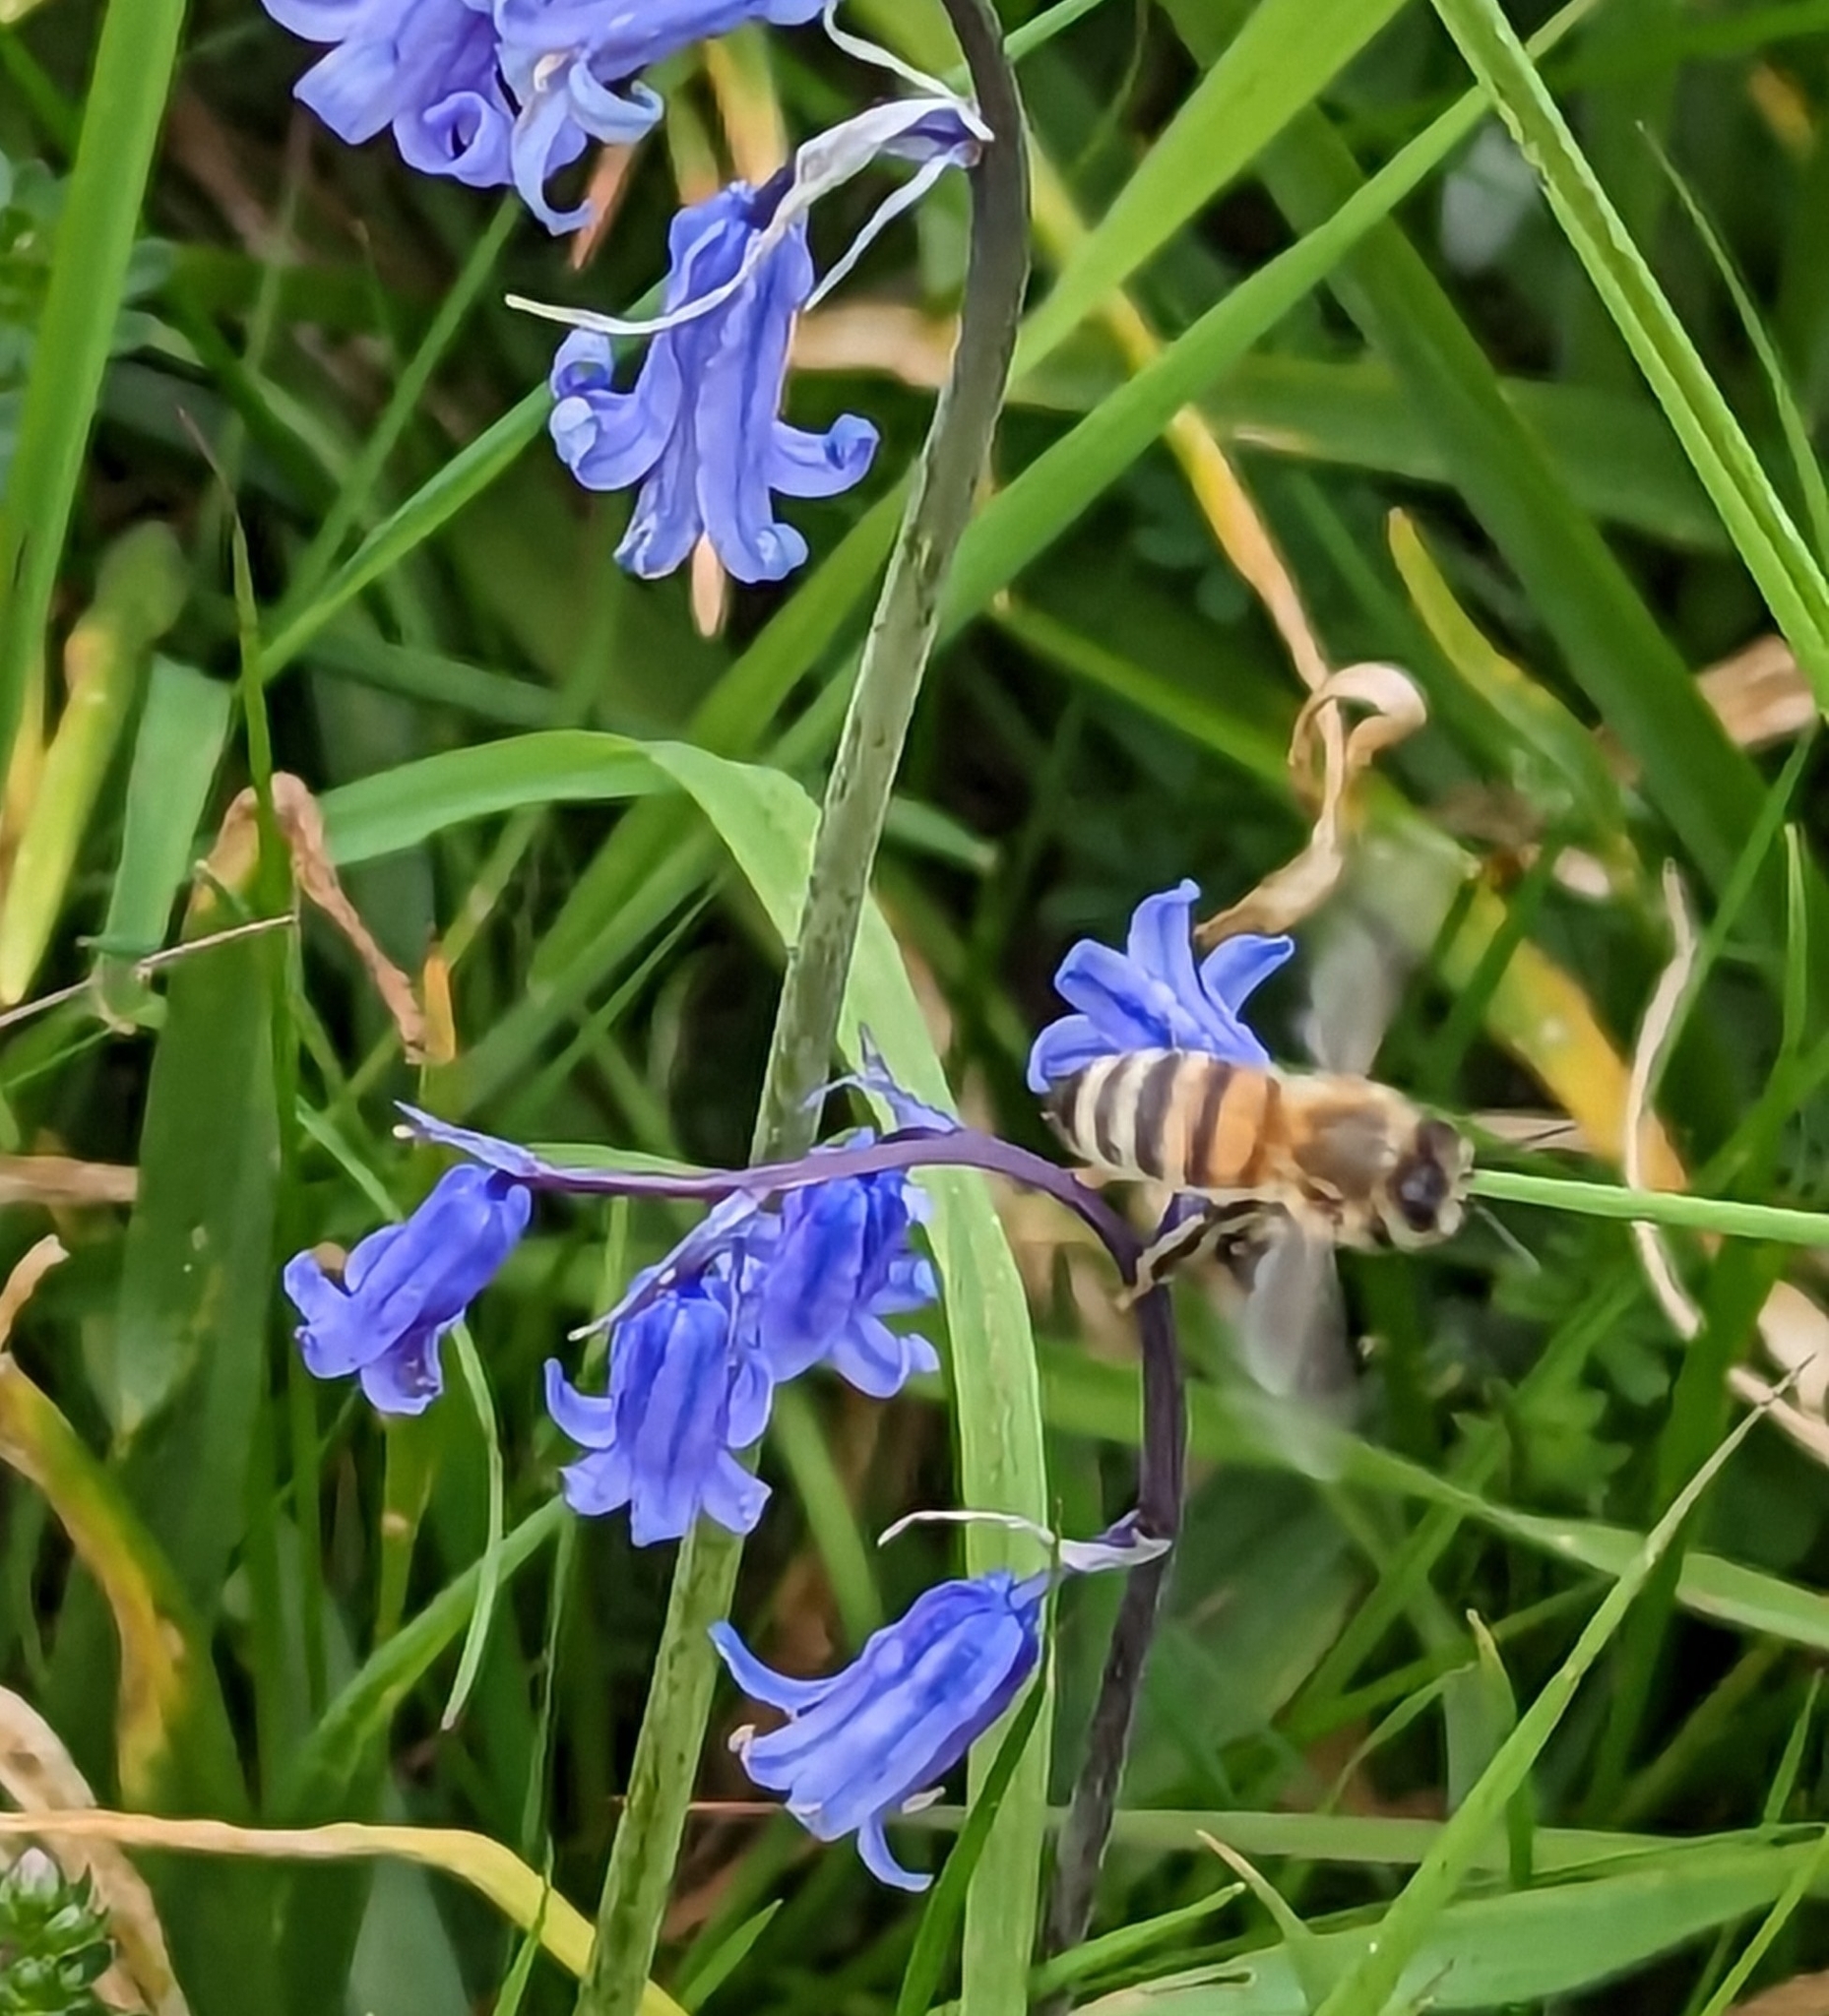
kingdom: Animalia
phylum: Arthropoda
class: Insecta
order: Hymenoptera
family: Apidae
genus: Apis
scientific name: Apis mellifera
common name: Honey bee
